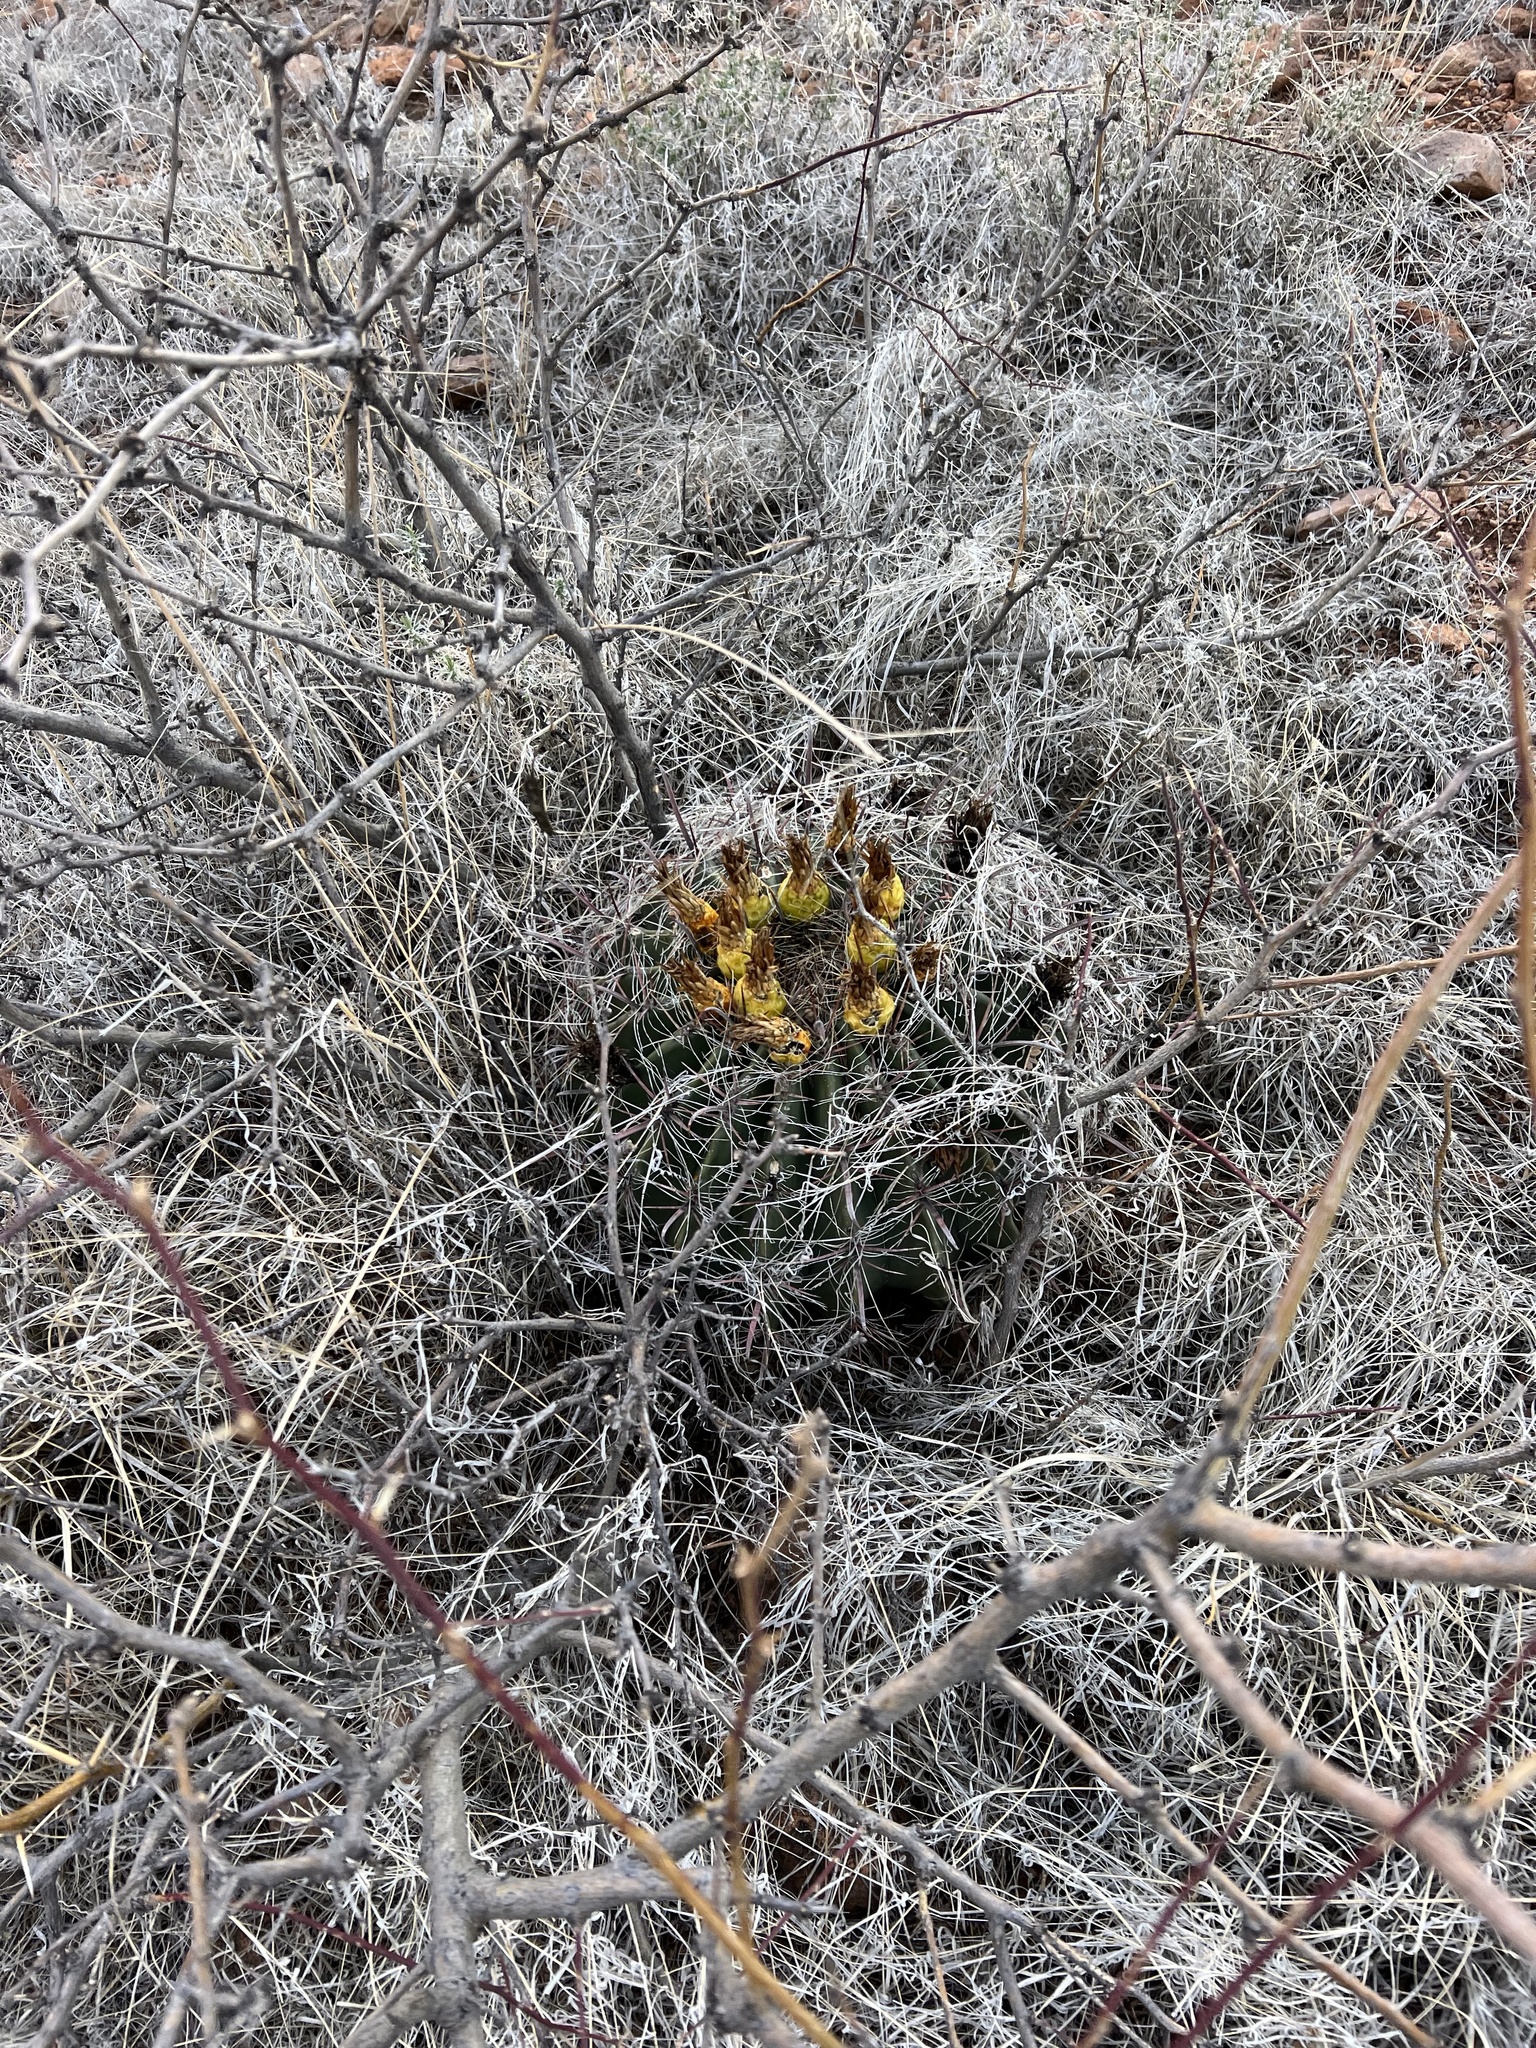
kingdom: Plantae
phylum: Tracheophyta
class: Magnoliopsida
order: Caryophyllales
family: Cactaceae
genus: Ferocactus
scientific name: Ferocactus wislizeni
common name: Candy barrel cactus
